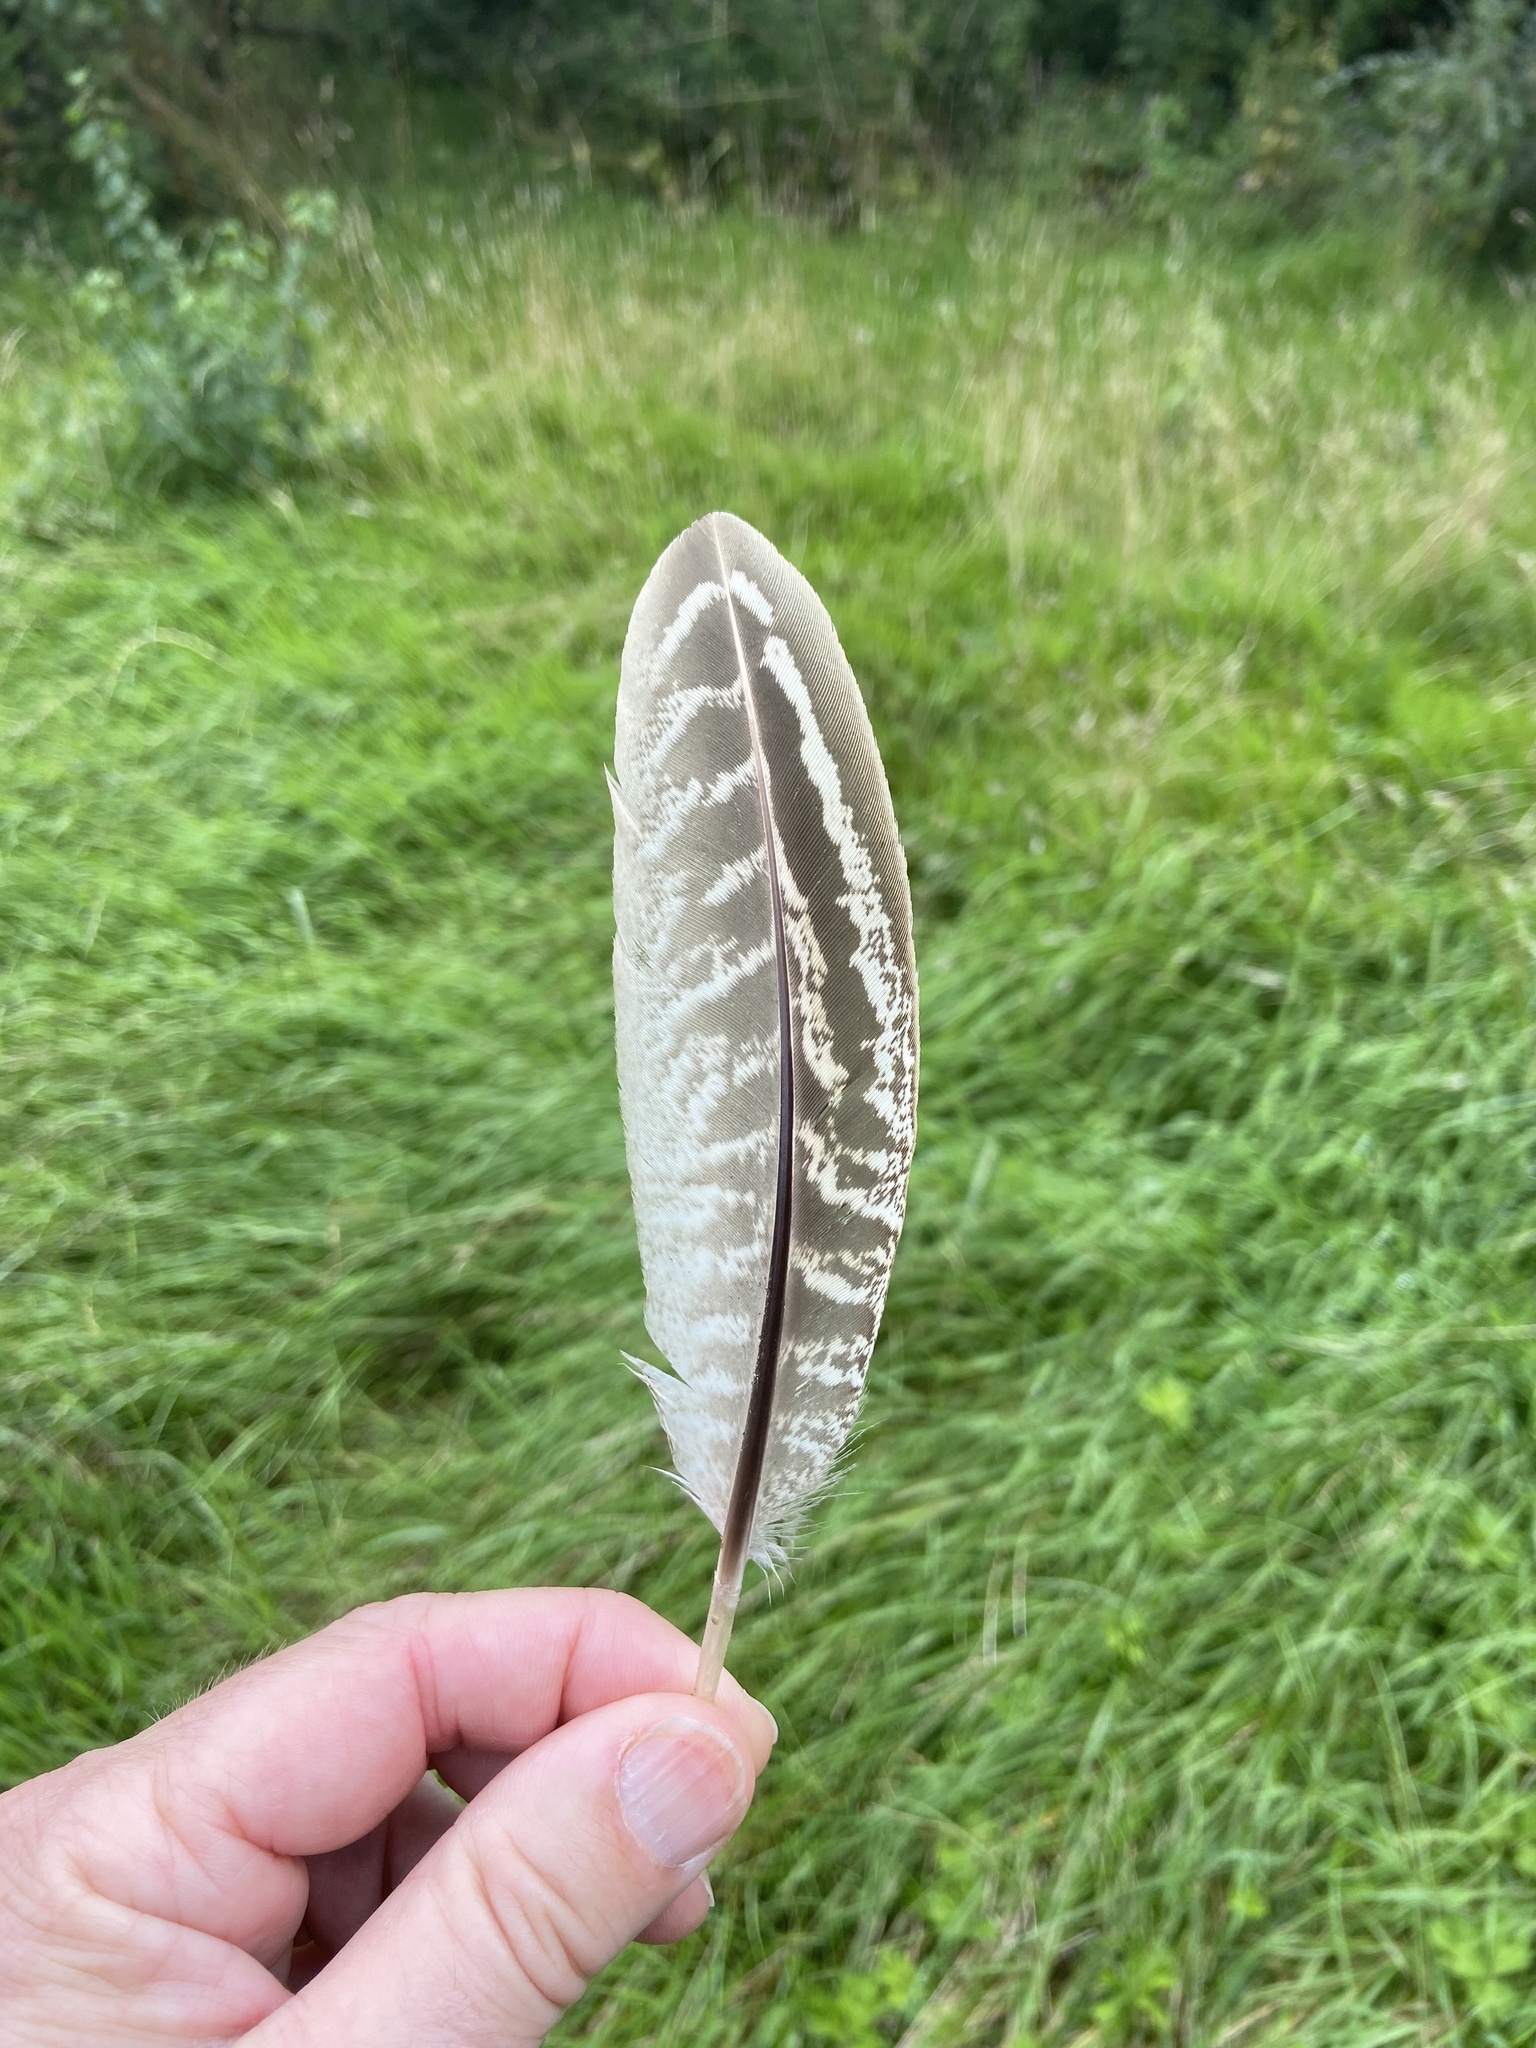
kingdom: Animalia
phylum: Chordata
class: Aves
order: Galliformes
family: Phasianidae
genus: Phasianus
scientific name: Phasianus colchicus
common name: Common pheasant
